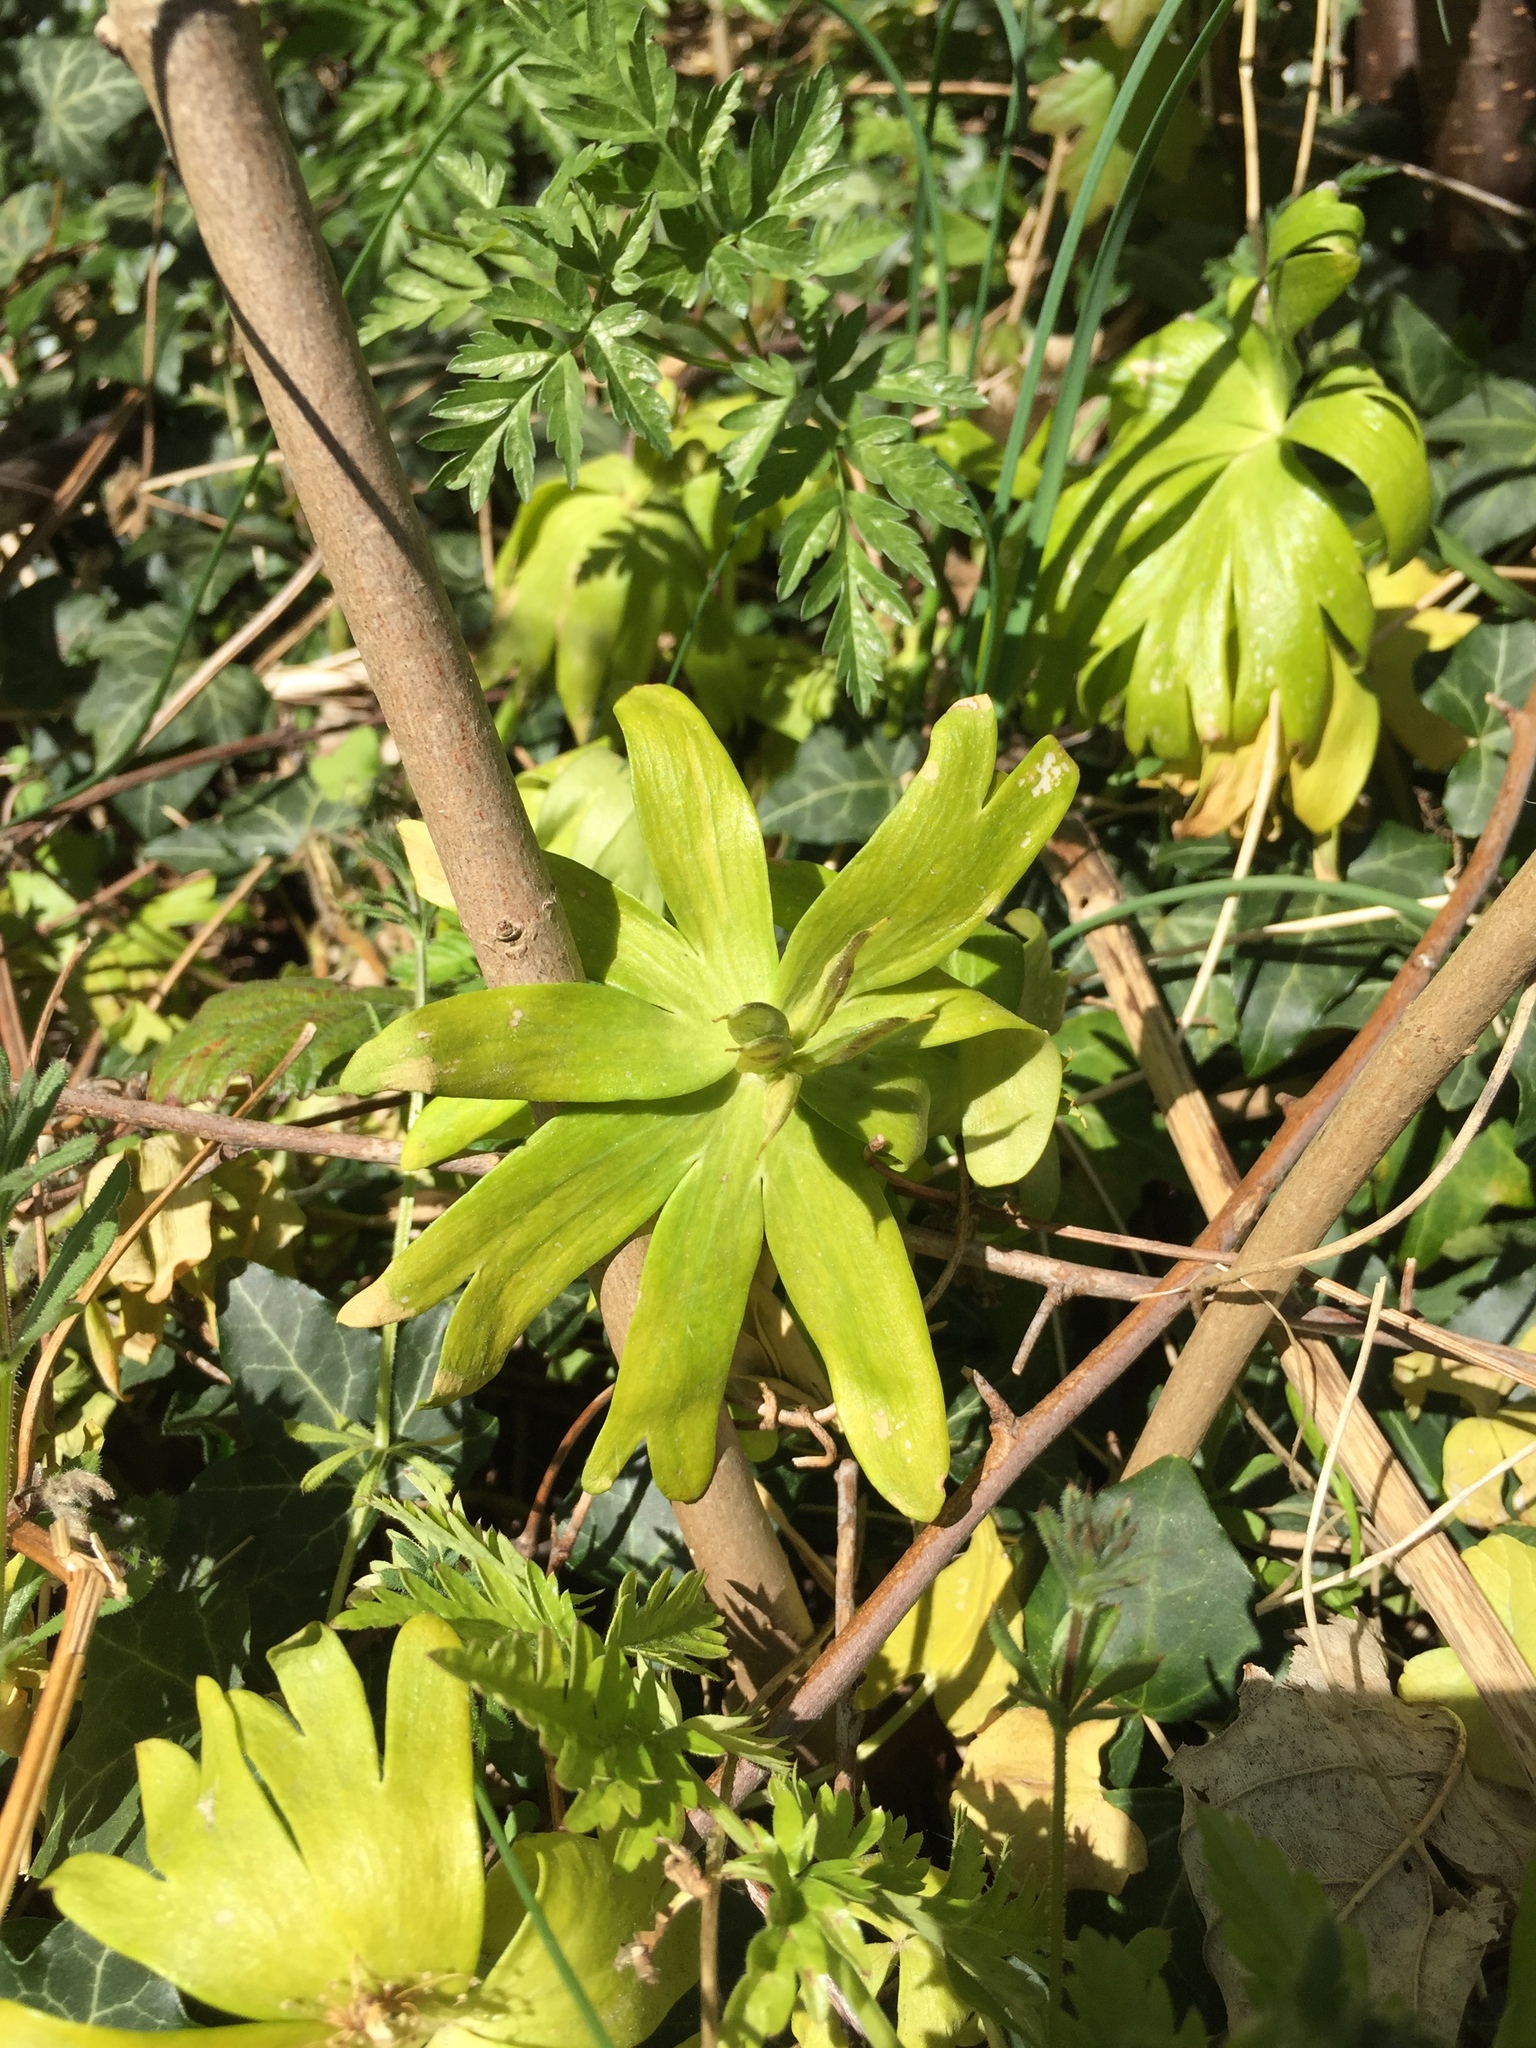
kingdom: Plantae
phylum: Tracheophyta
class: Magnoliopsida
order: Ranunculales
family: Ranunculaceae
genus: Eranthis
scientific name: Eranthis hyemalis
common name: Winter aconite
